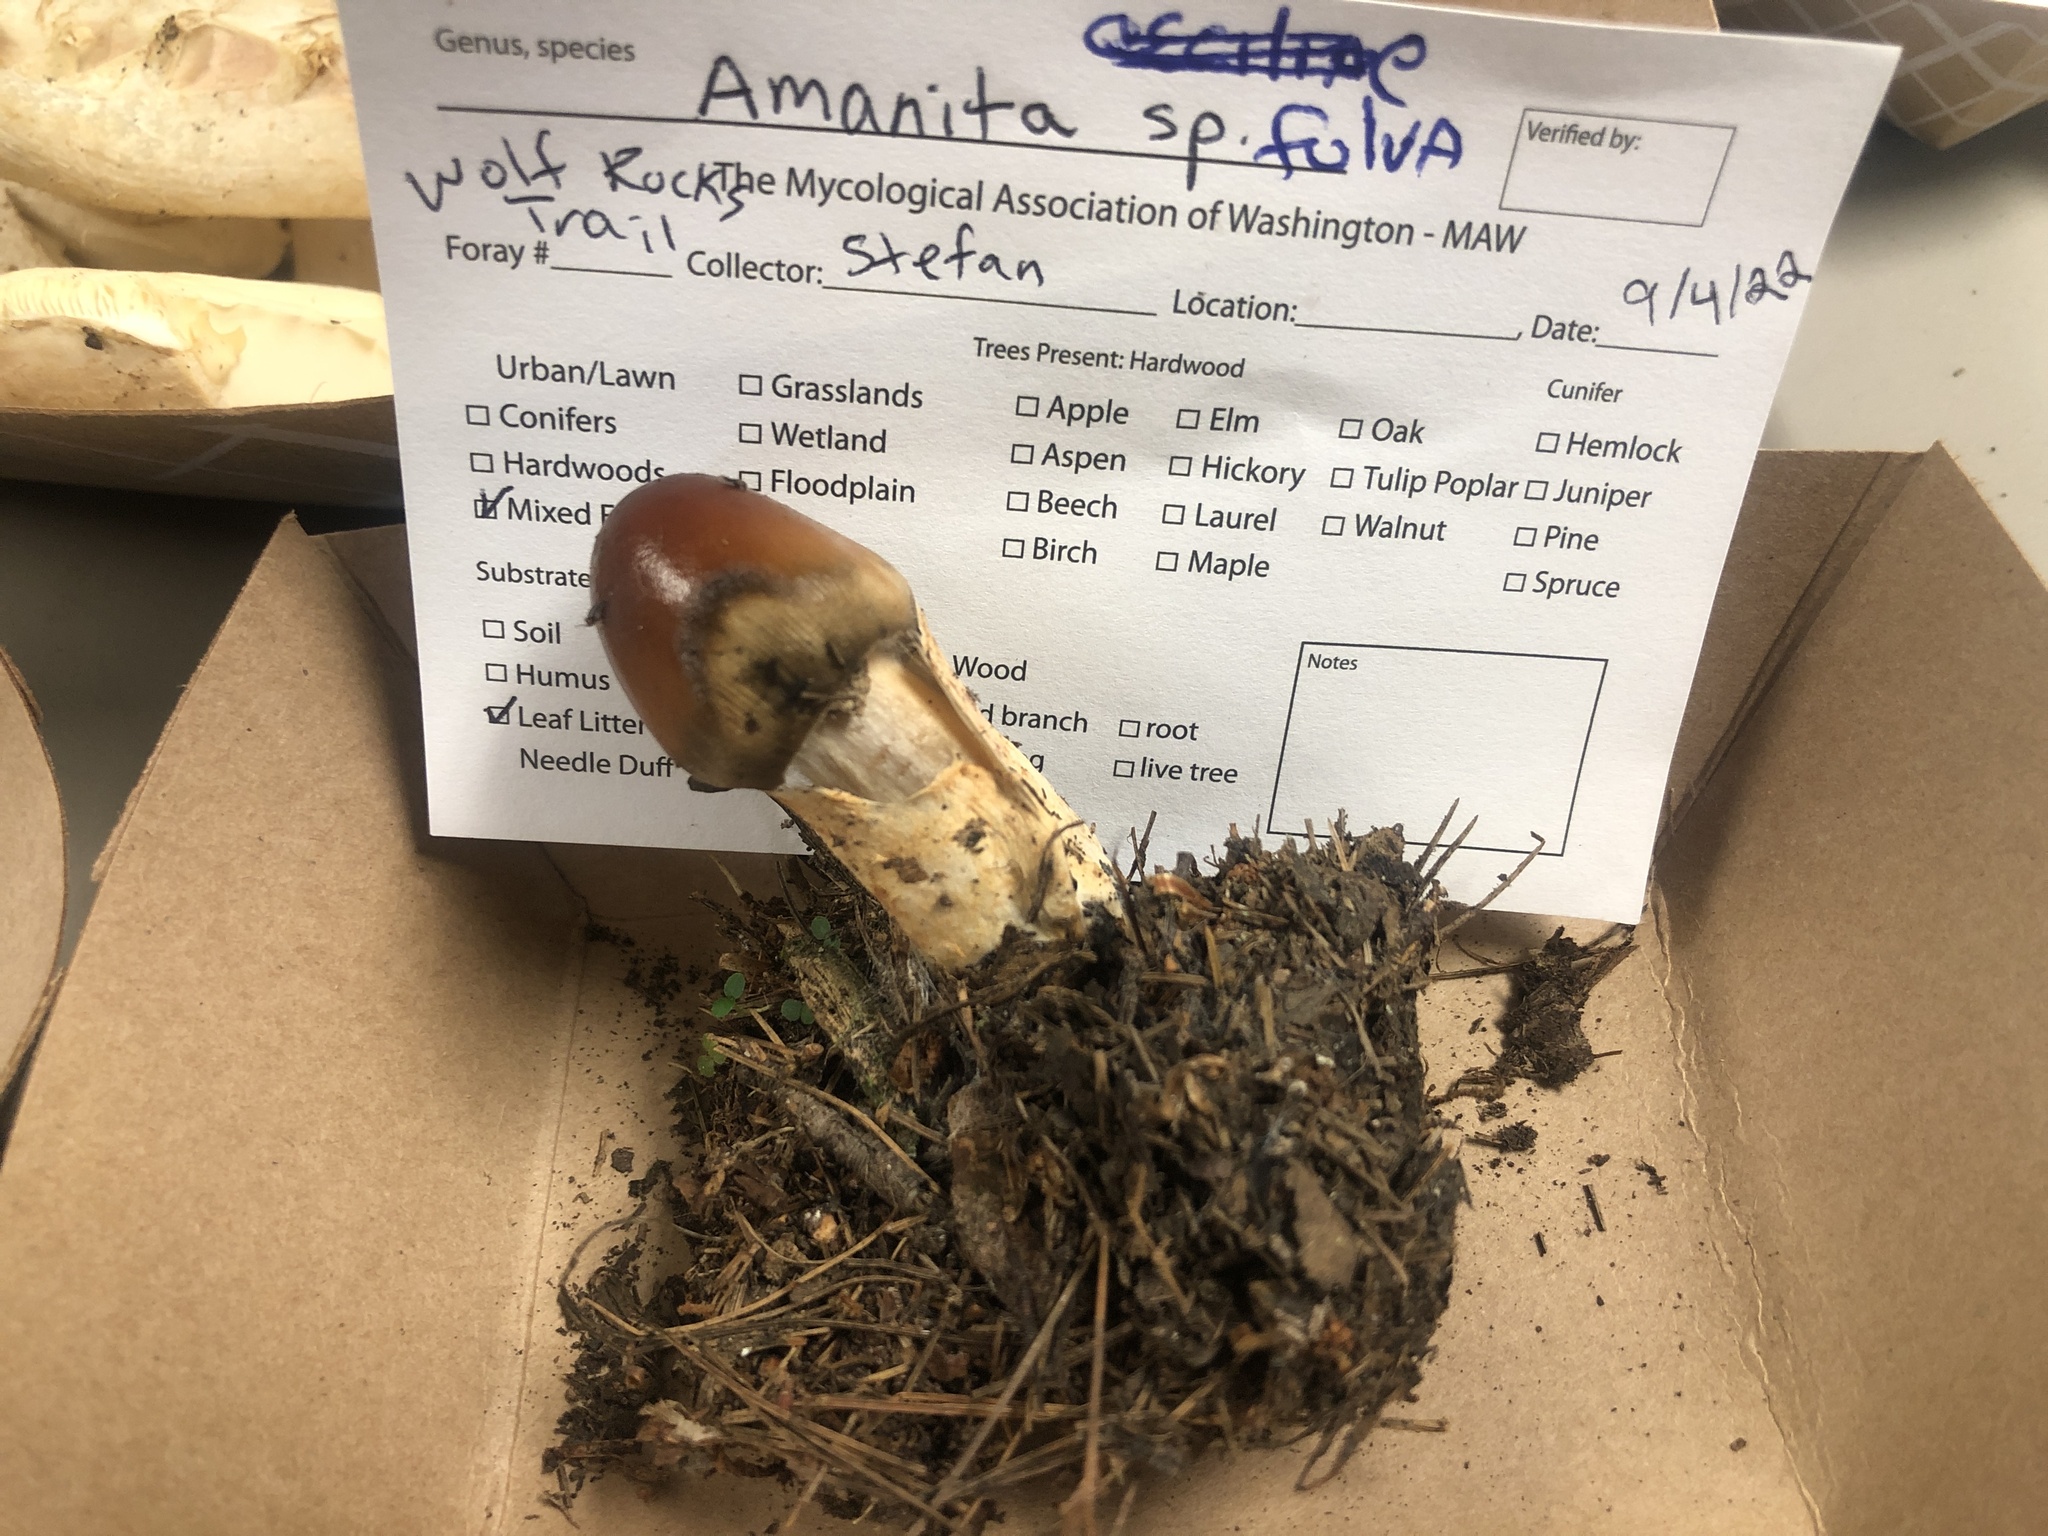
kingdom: Fungi
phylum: Basidiomycota
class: Agaricomycetes
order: Agaricales
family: Amanitaceae
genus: Amanita
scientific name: Amanita fulva
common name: Tawny grisette
